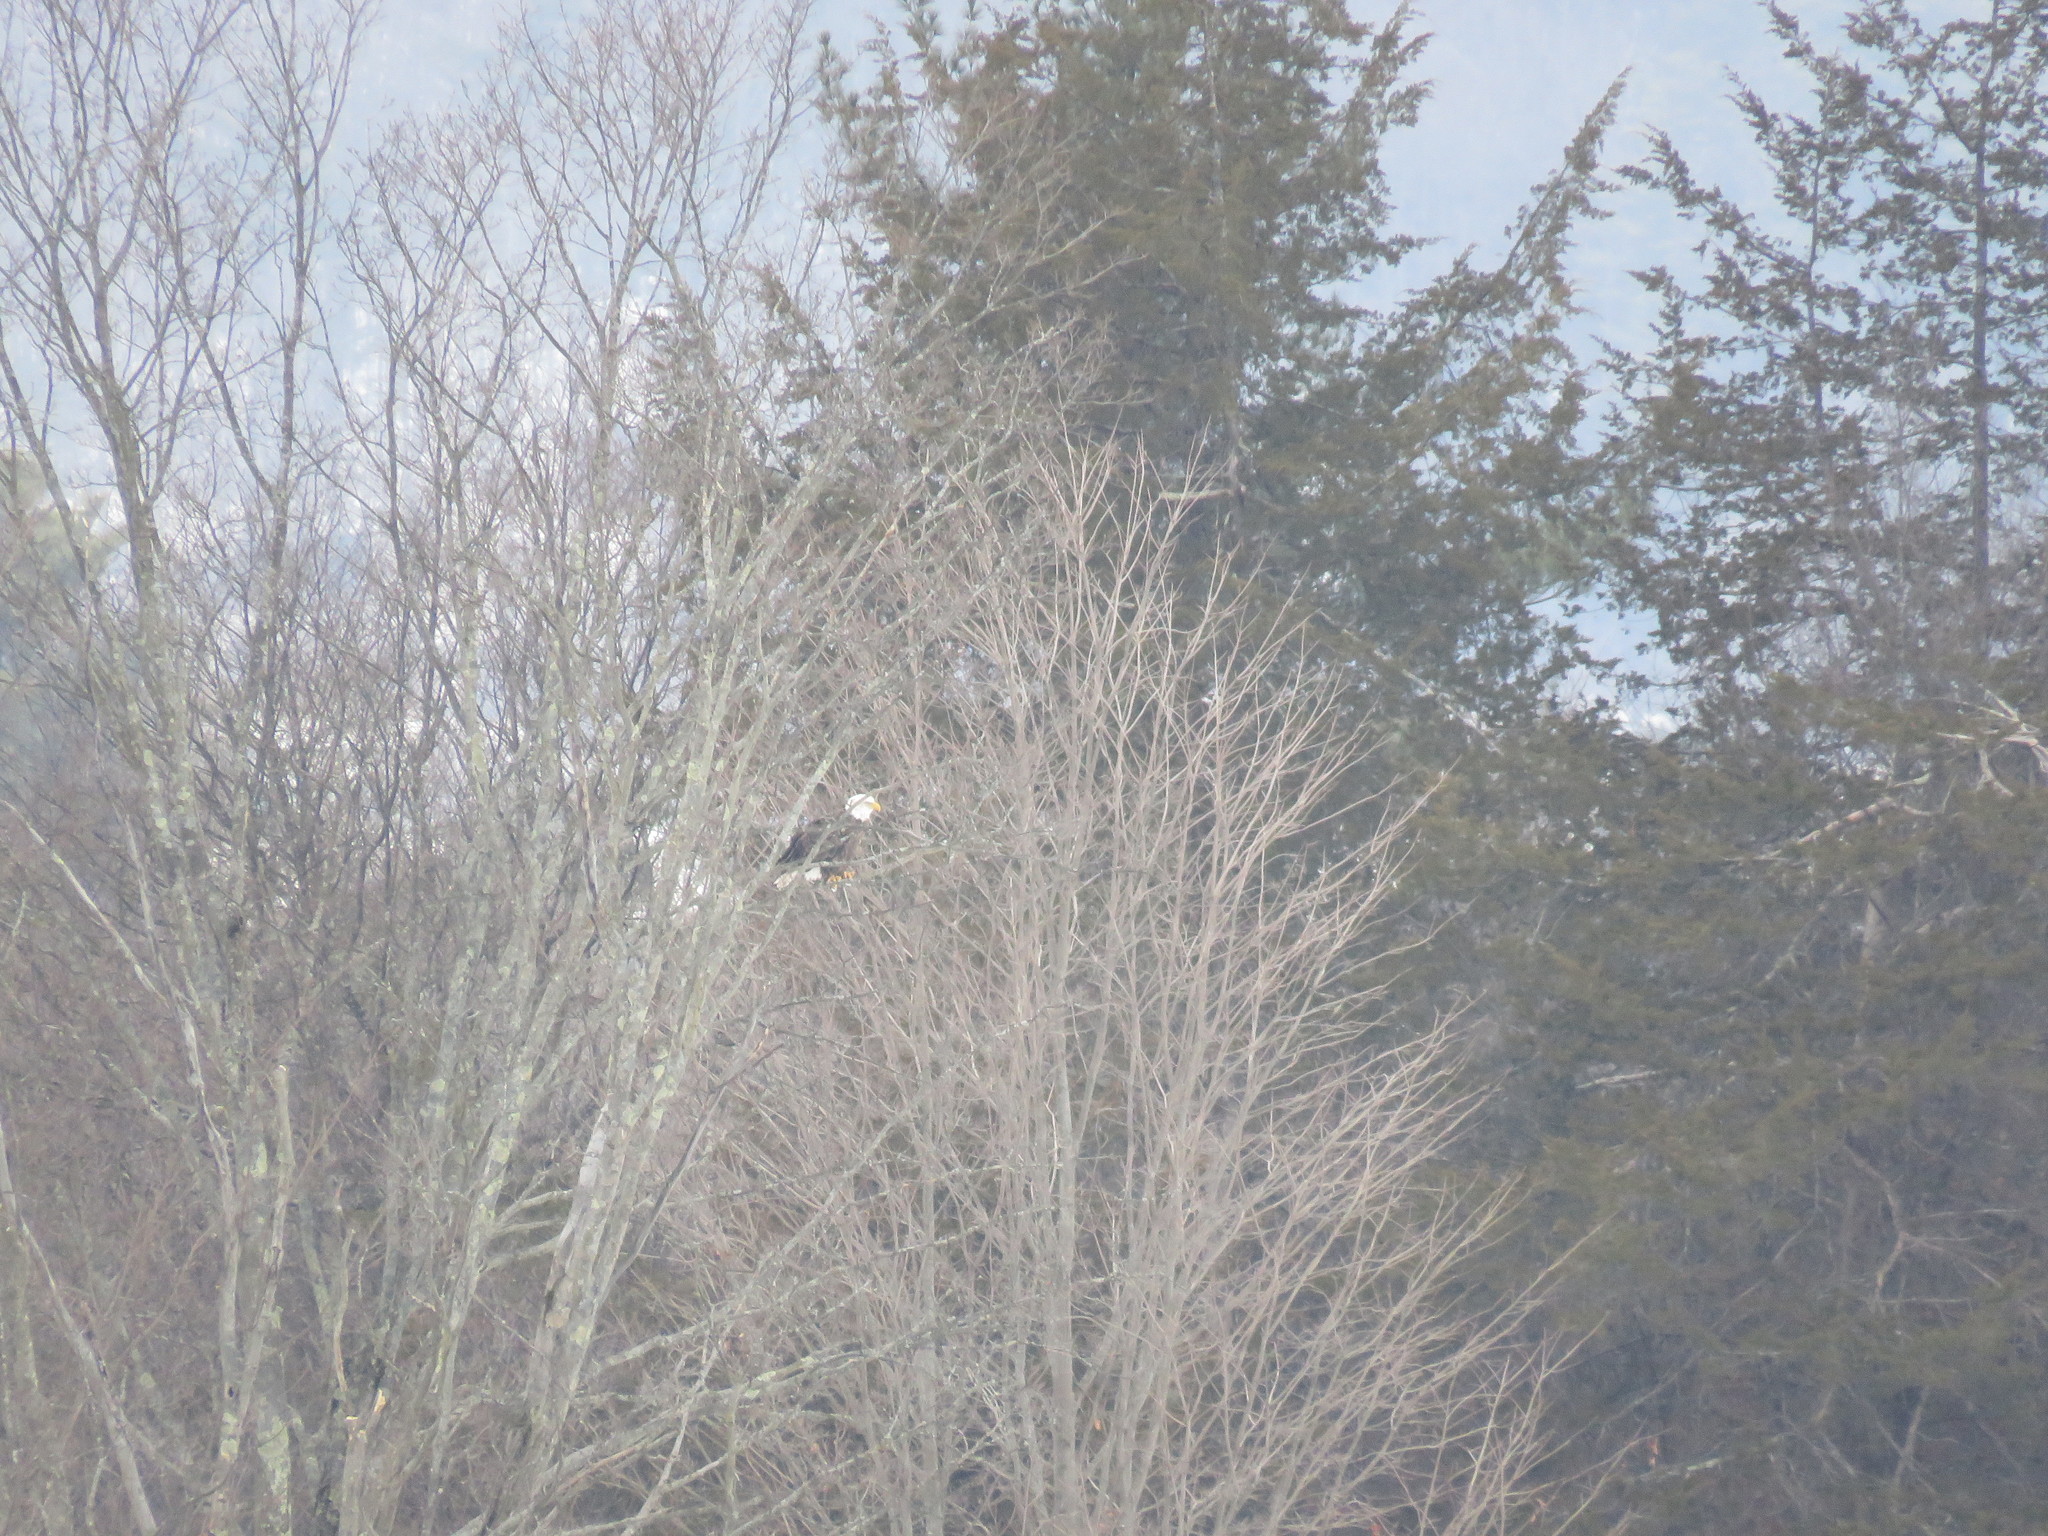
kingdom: Animalia
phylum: Chordata
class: Aves
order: Accipitriformes
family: Accipitridae
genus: Haliaeetus
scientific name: Haliaeetus leucocephalus
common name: Bald eagle
